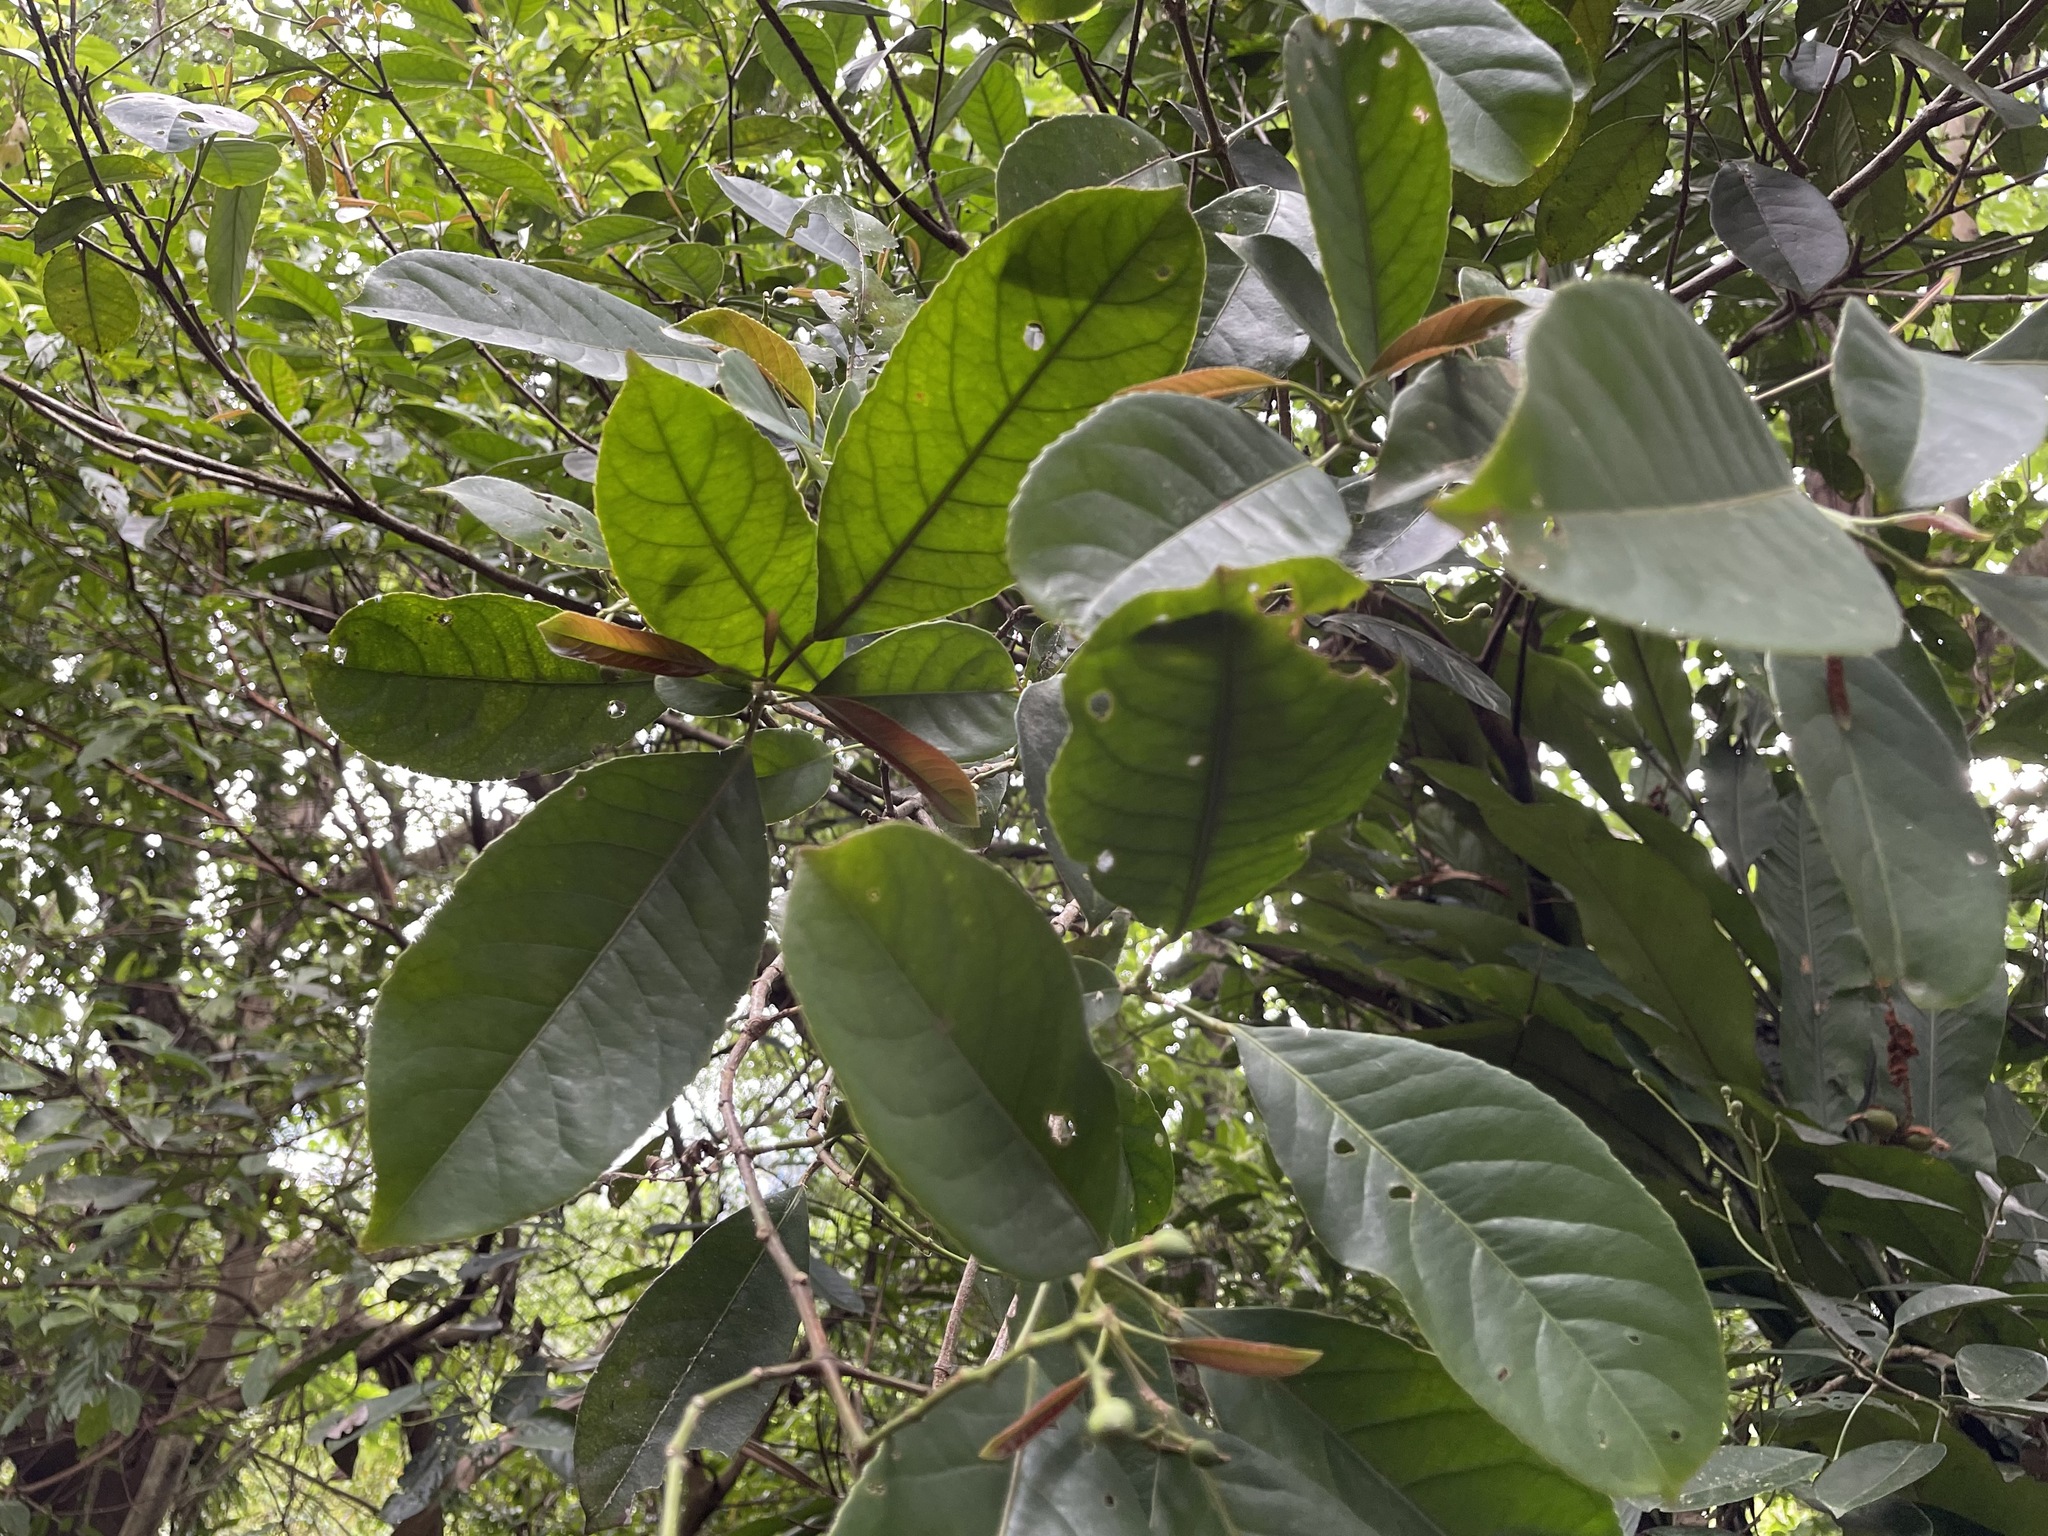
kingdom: Plantae
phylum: Tracheophyta
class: Magnoliopsida
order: Crossosomatales
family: Staphyleaceae
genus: Turpinia
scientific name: Turpinia formosana
